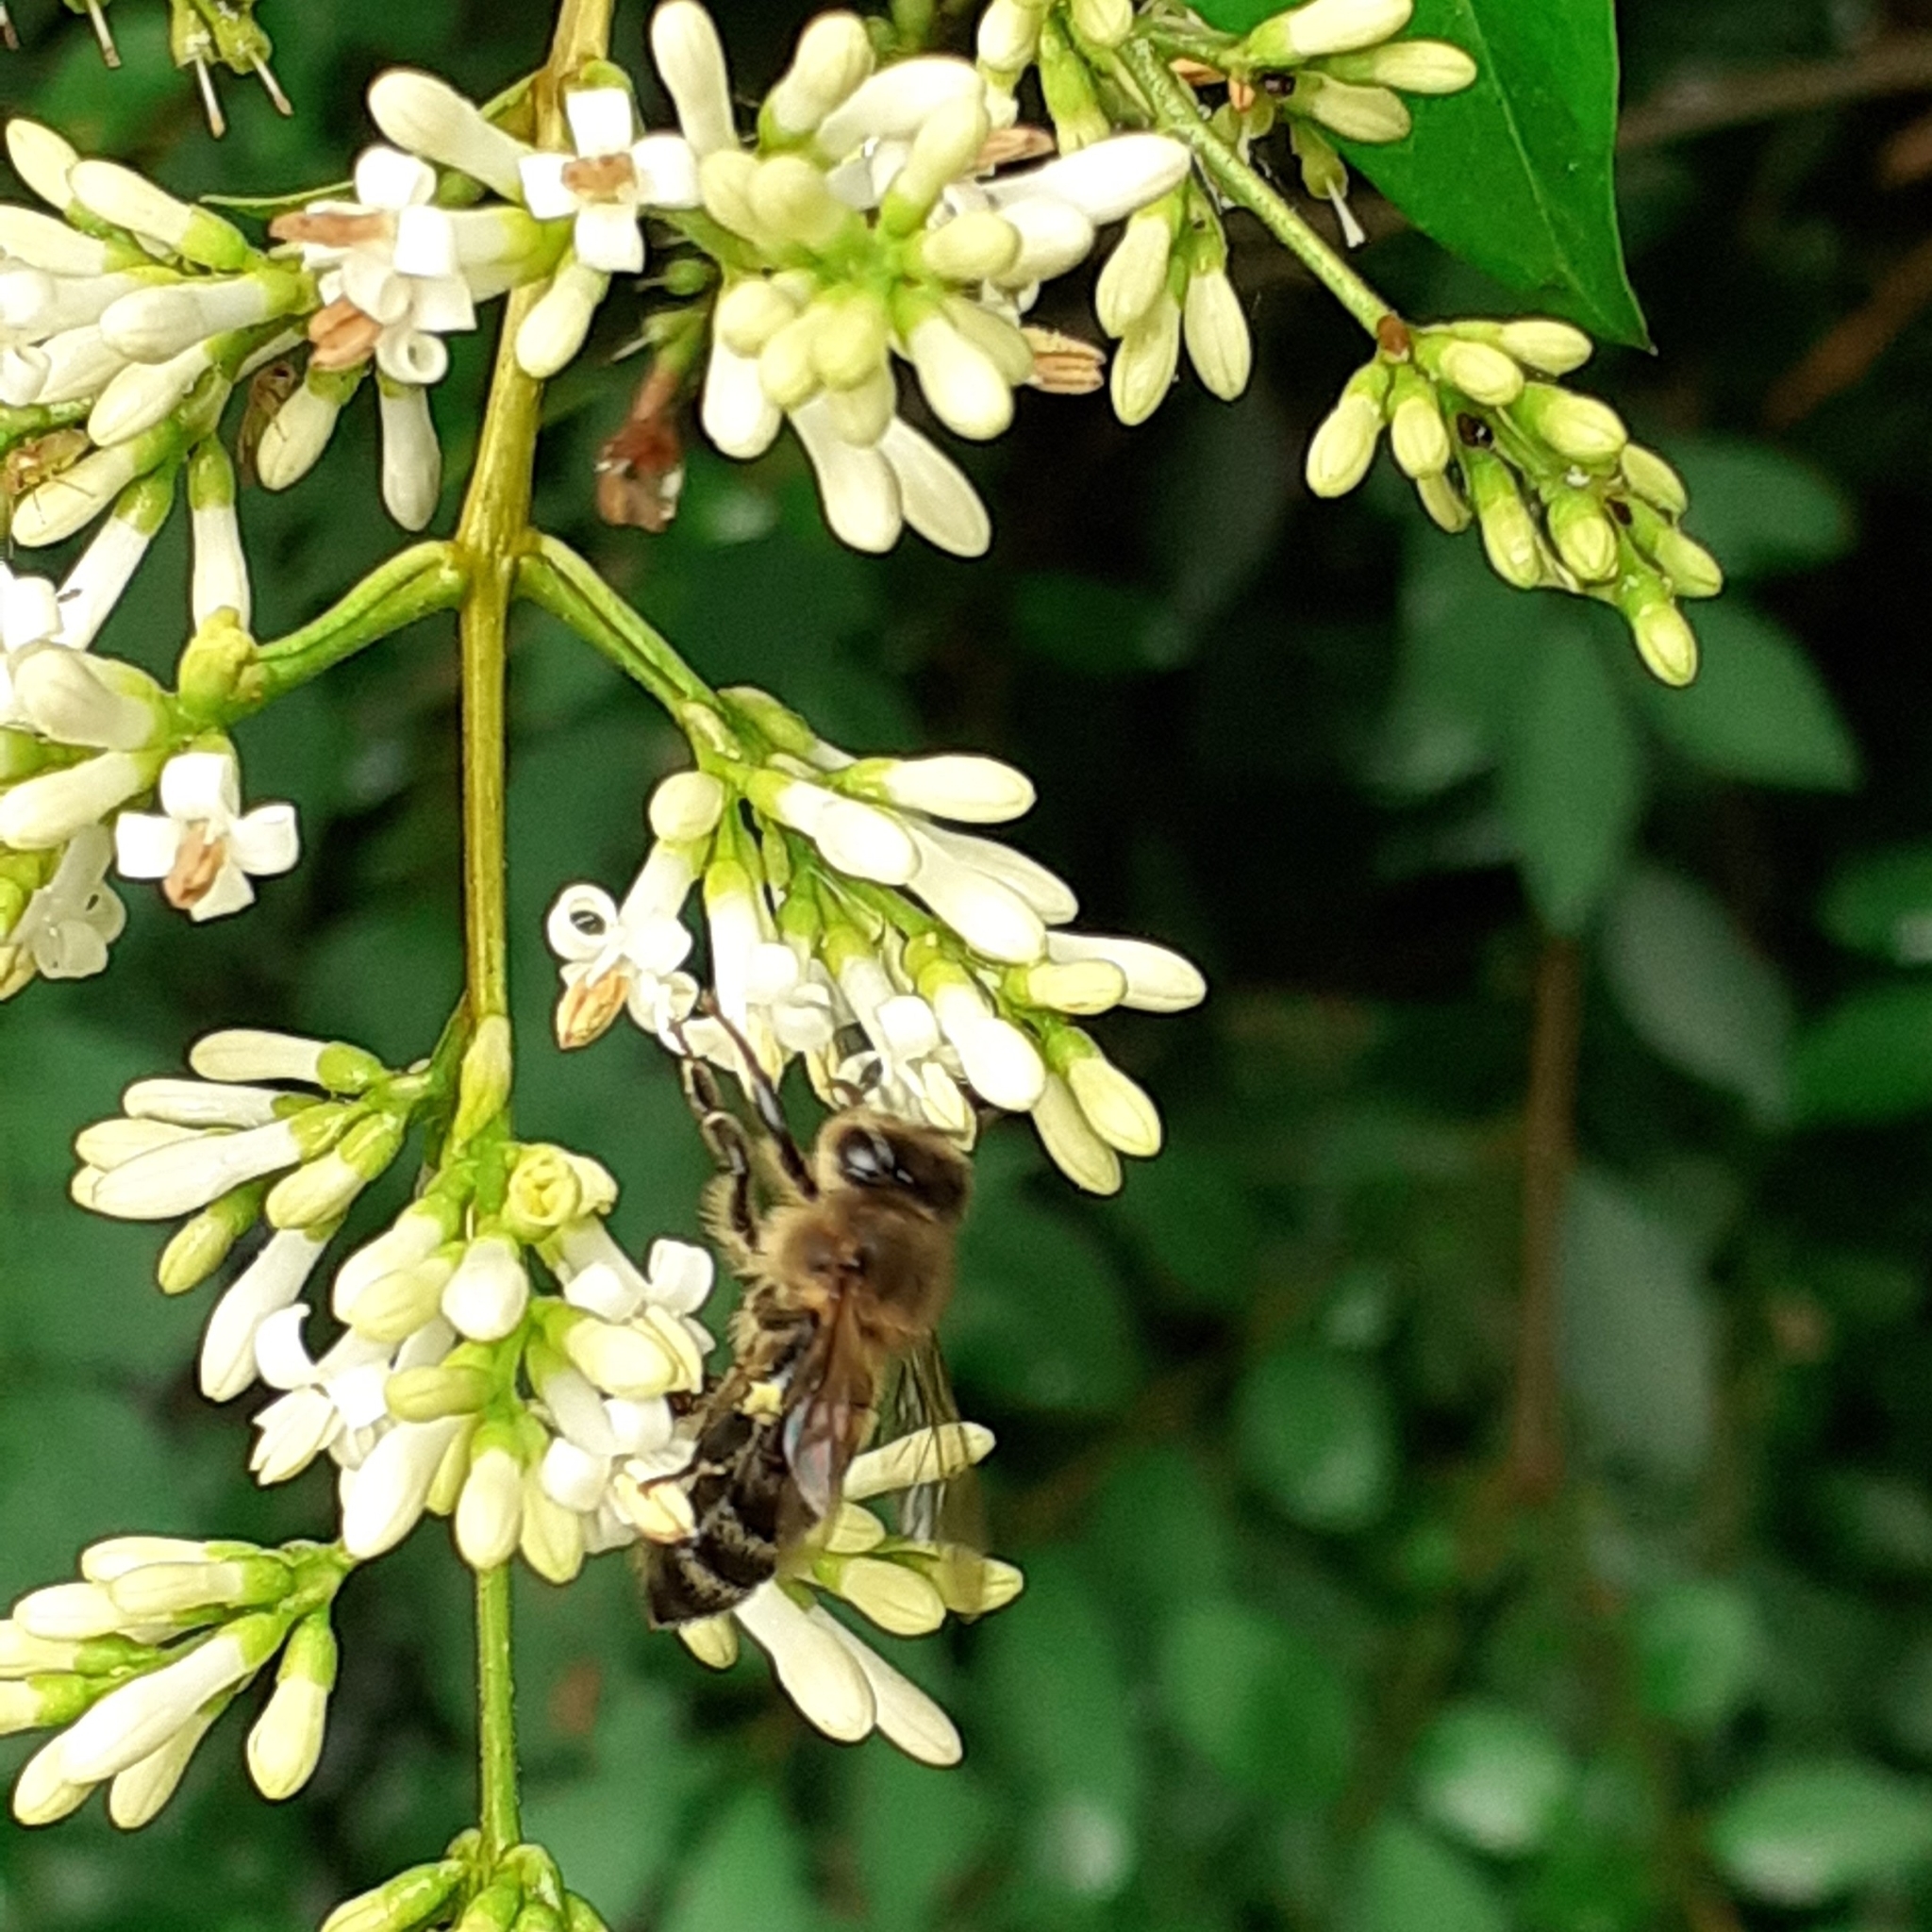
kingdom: Animalia
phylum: Arthropoda
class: Insecta
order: Hymenoptera
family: Apidae
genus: Apis
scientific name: Apis mellifera
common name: Honey bee
